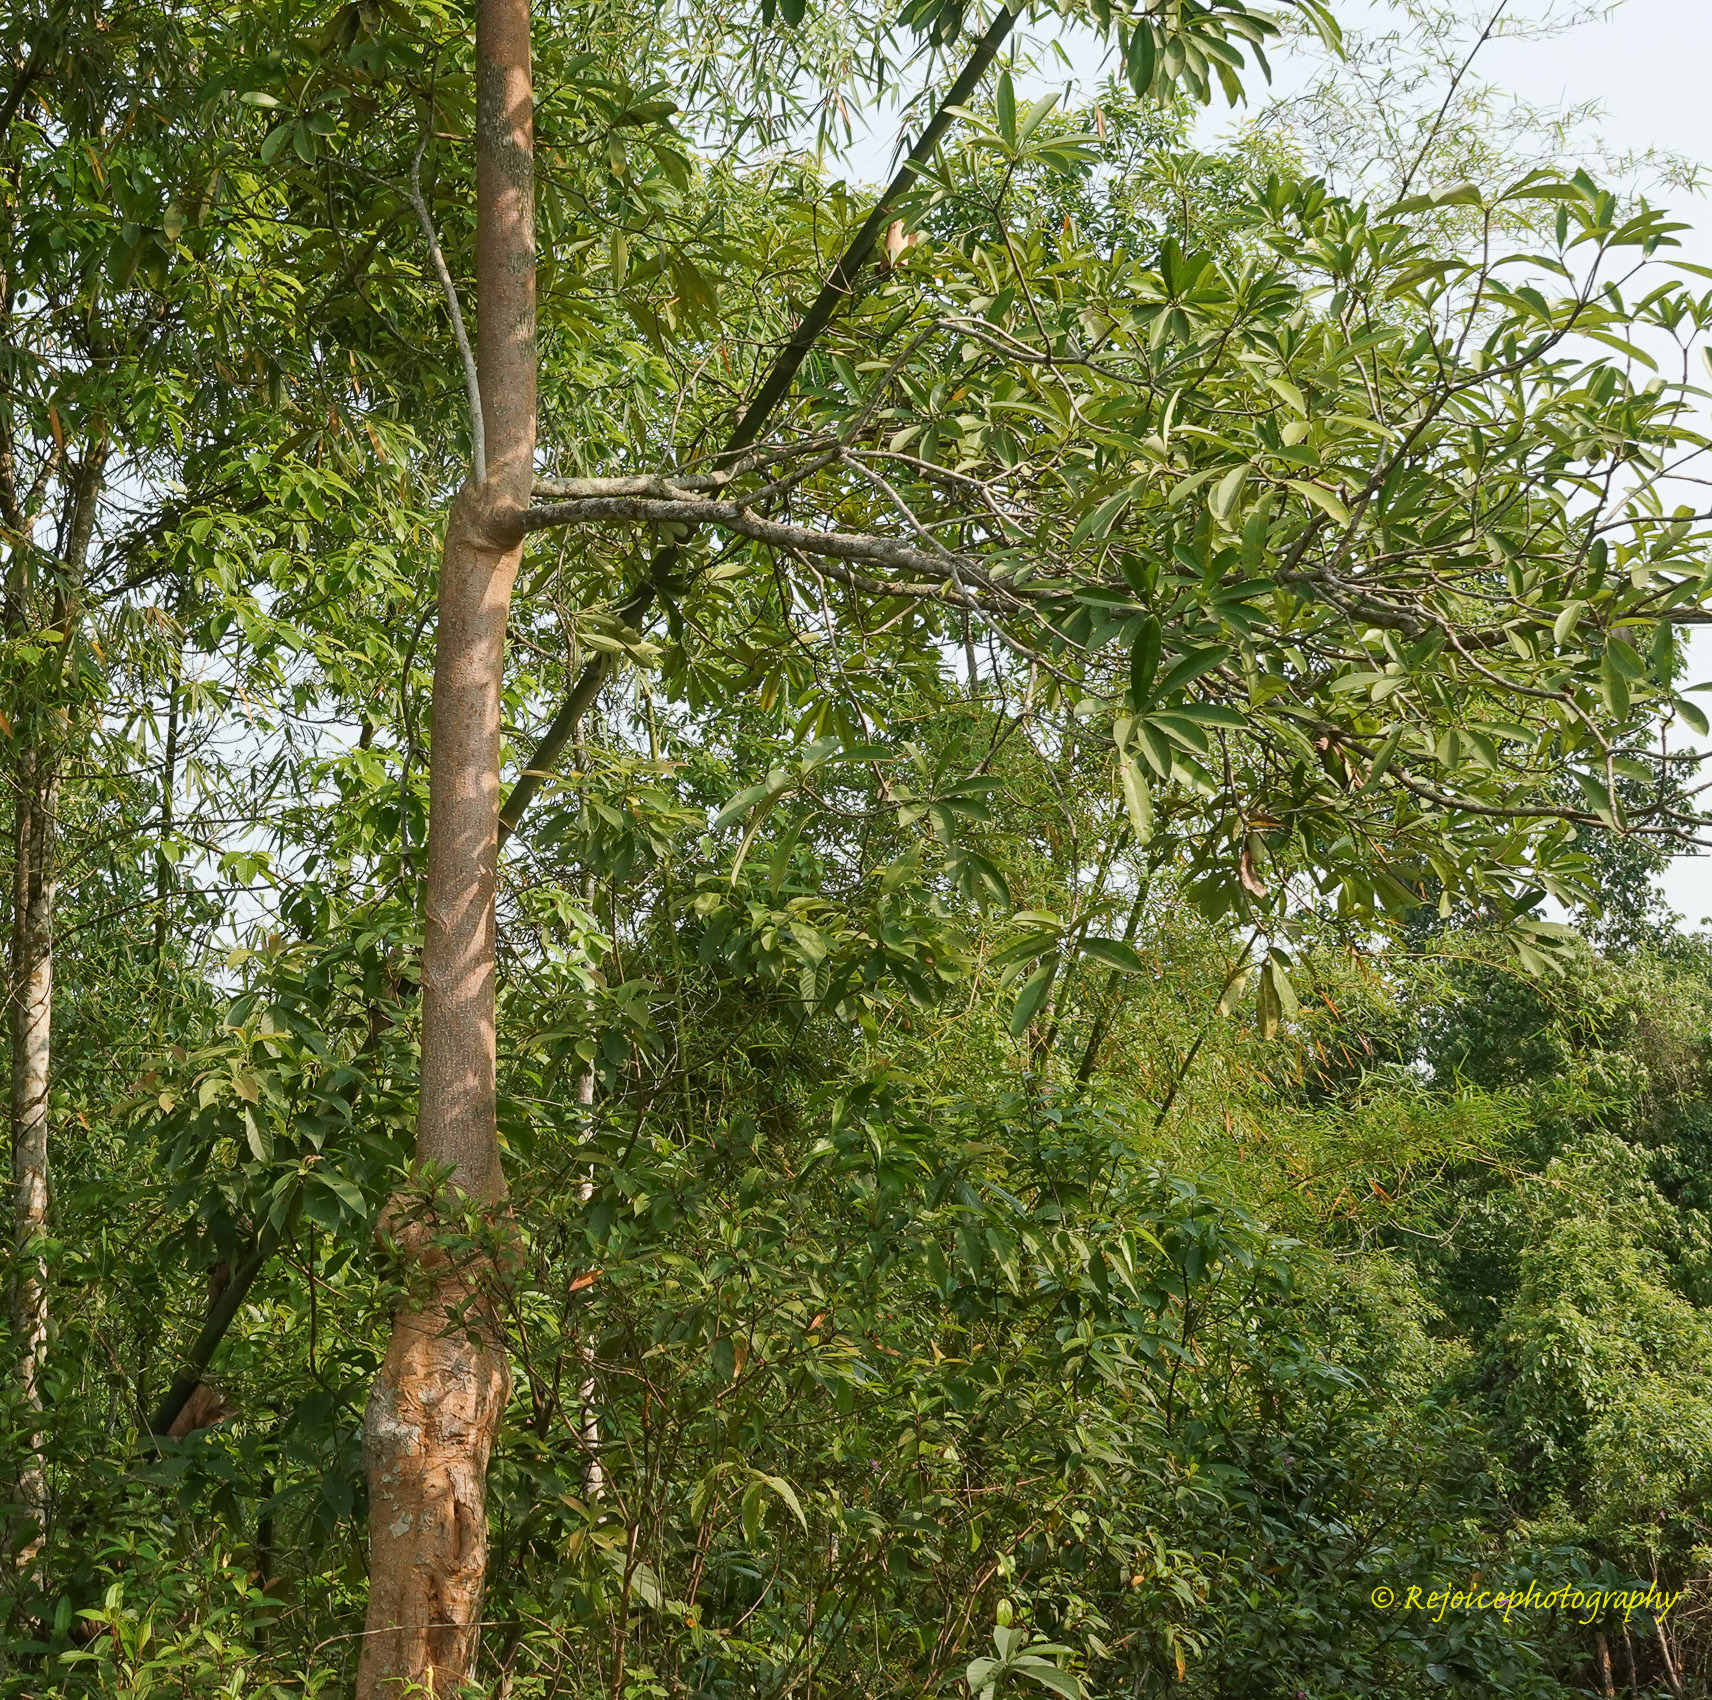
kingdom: Plantae
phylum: Tracheophyta
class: Magnoliopsida
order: Gentianales
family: Apocynaceae
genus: Alstonia
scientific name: Alstonia scholaris
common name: White cheesewood
